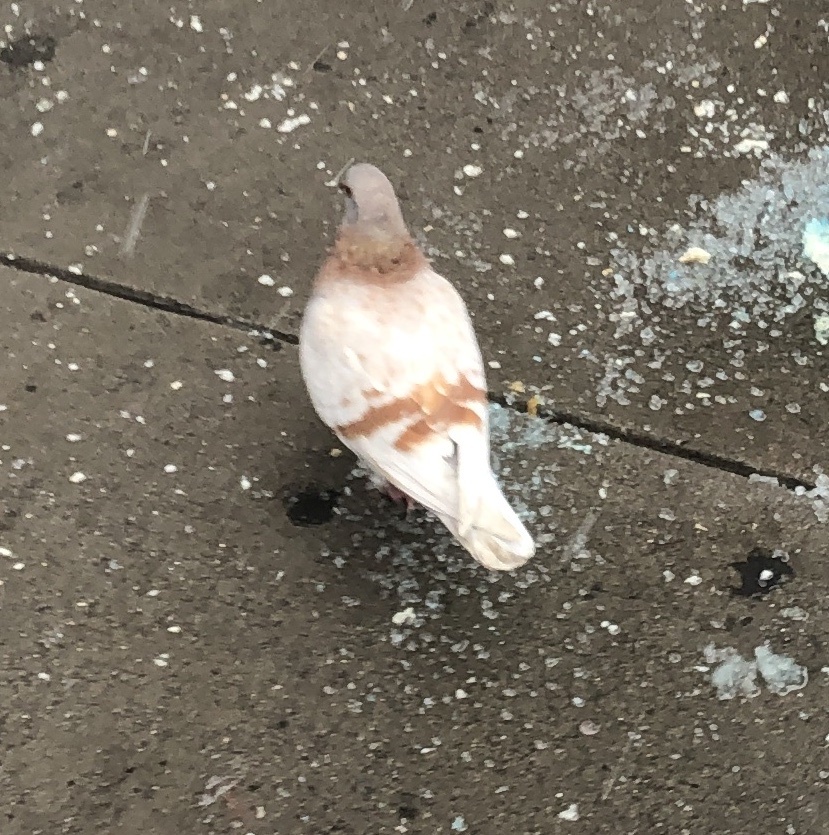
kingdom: Animalia
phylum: Chordata
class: Aves
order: Columbiformes
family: Columbidae
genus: Columba
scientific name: Columba livia
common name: Rock pigeon
